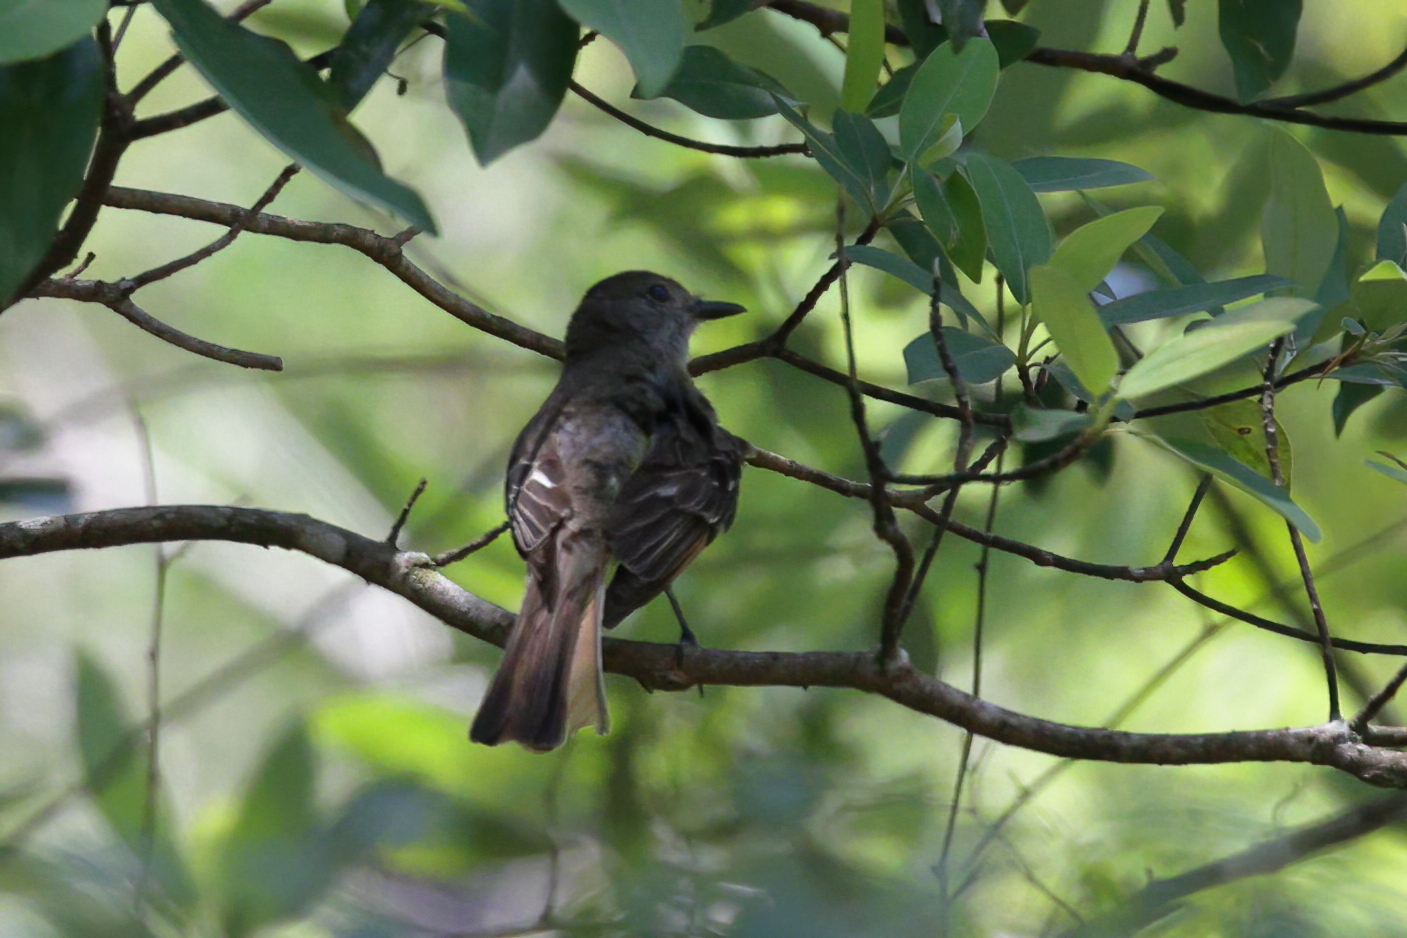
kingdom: Animalia
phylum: Chordata
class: Aves
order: Passeriformes
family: Tyrannidae
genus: Myiarchus
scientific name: Myiarchus crinitus
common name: Great crested flycatcher
